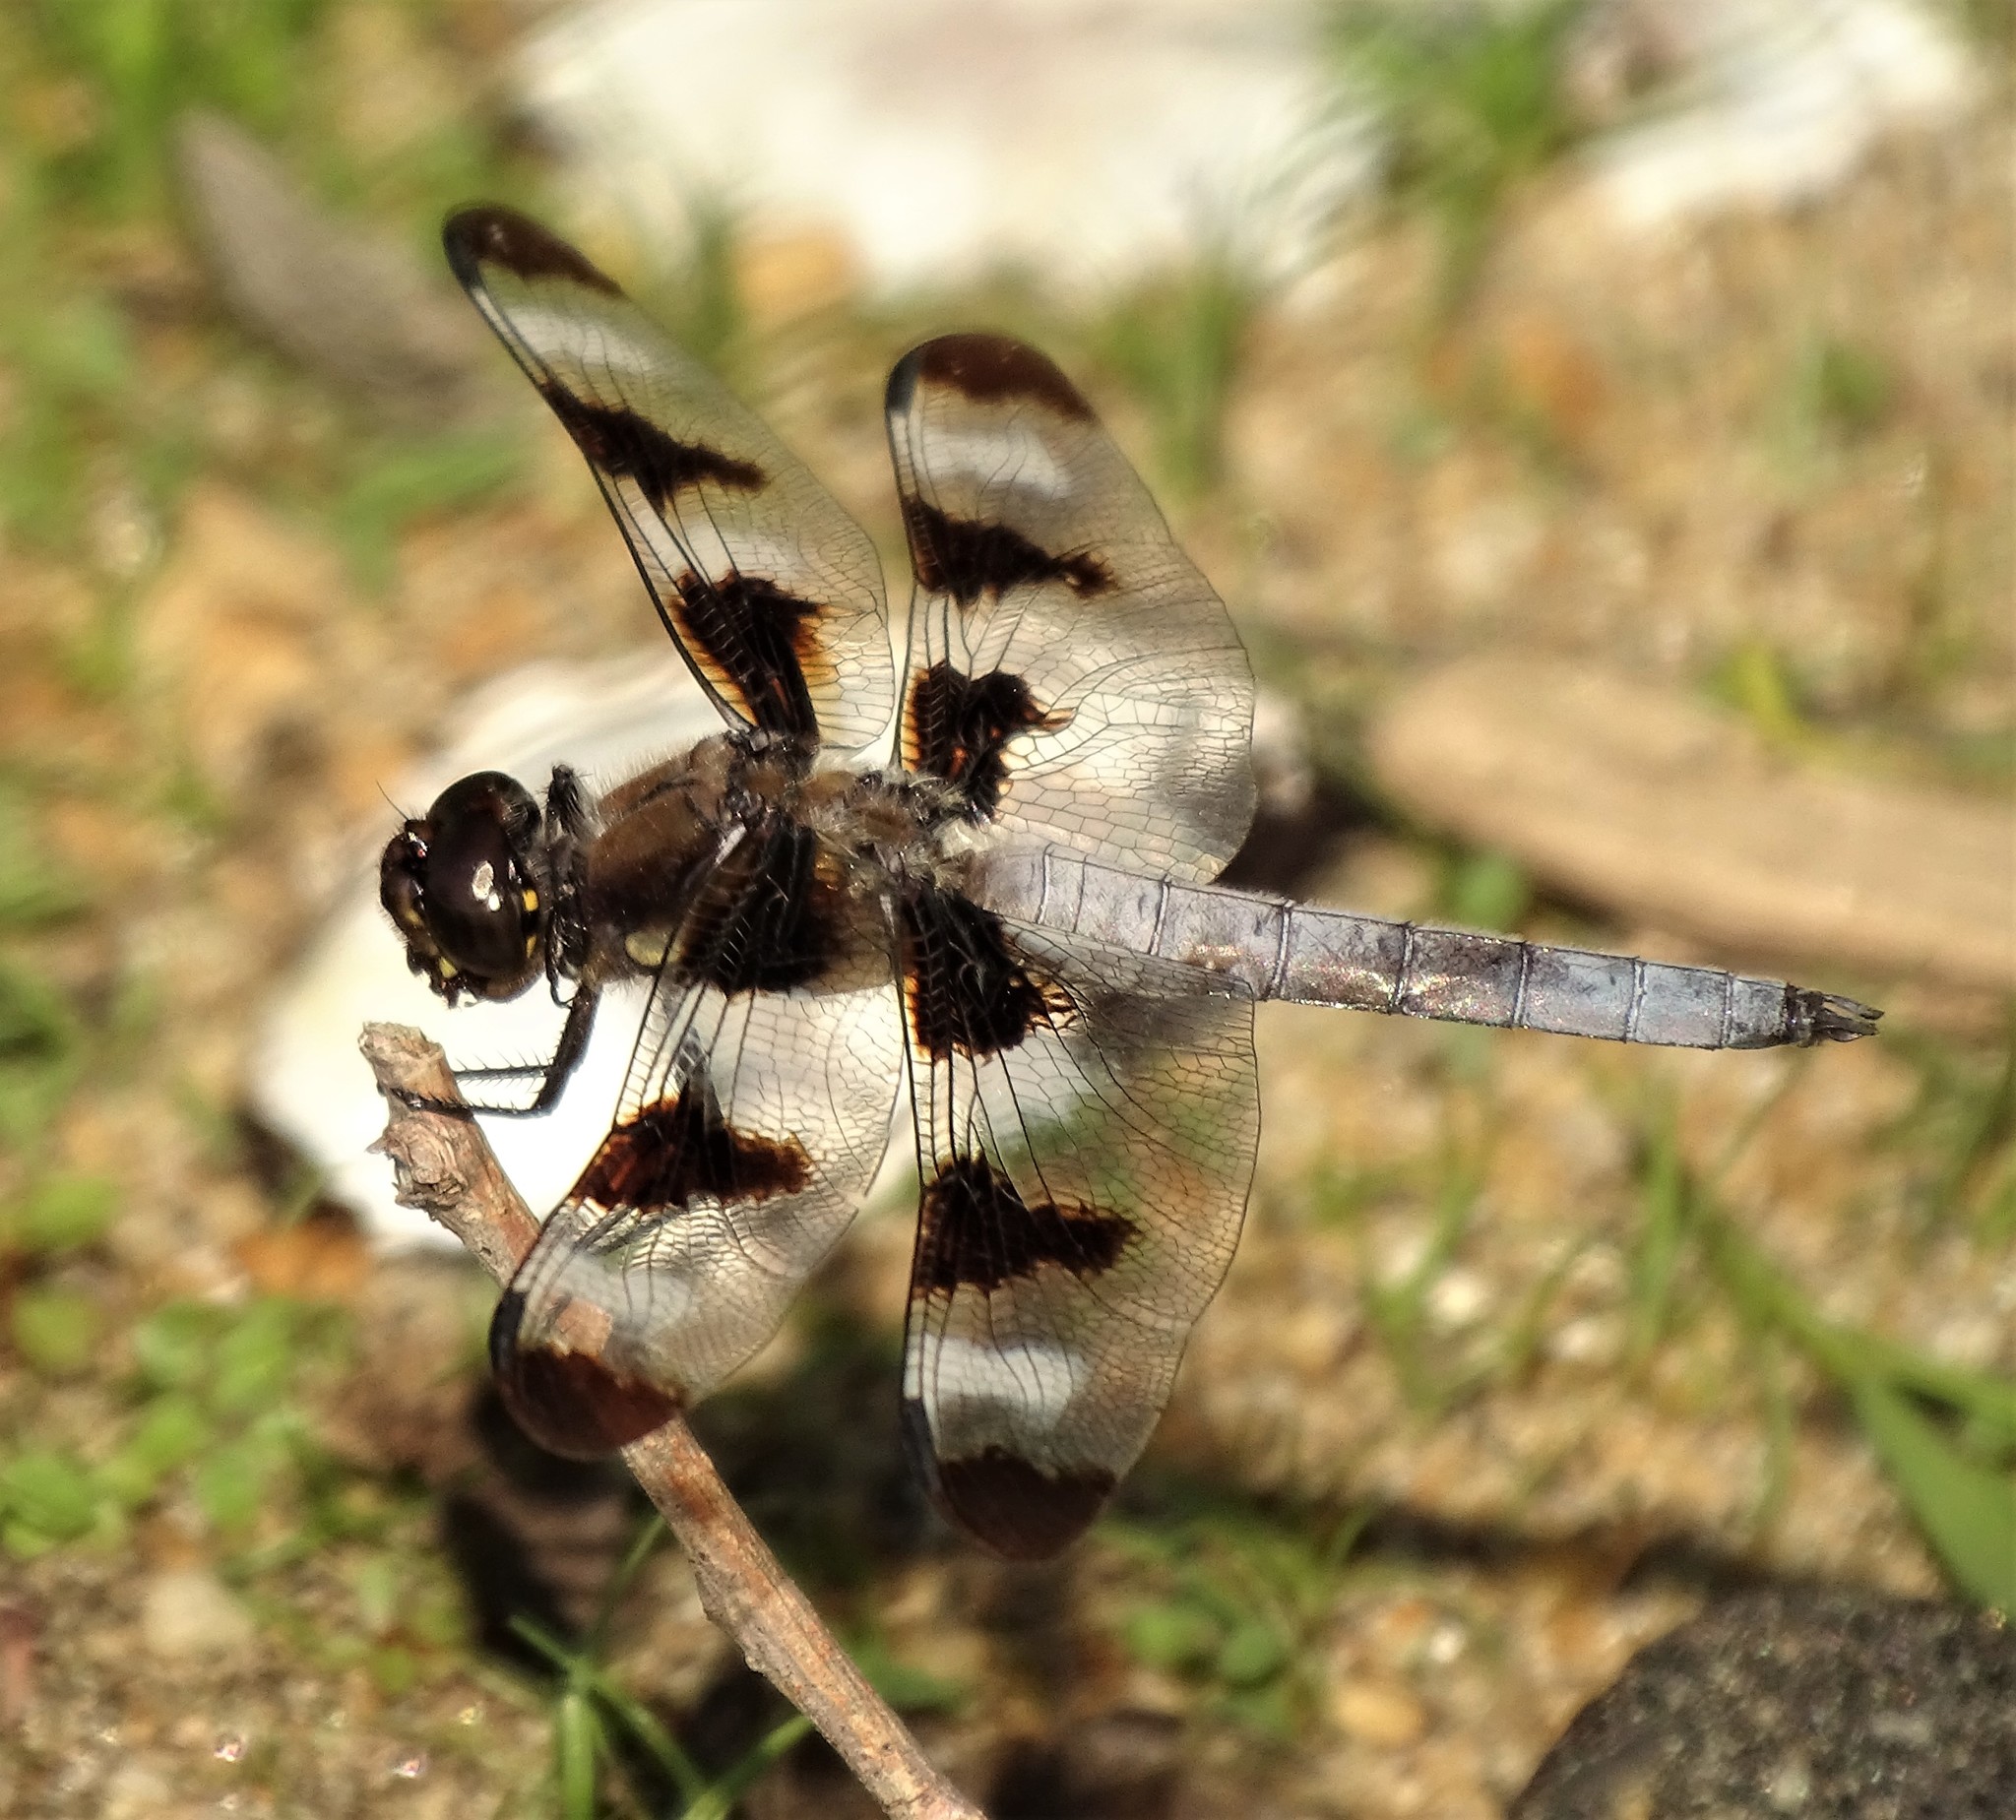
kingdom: Animalia
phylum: Arthropoda
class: Insecta
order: Odonata
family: Libellulidae
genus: Libellula
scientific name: Libellula pulchella
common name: Twelve-spotted skimmer
